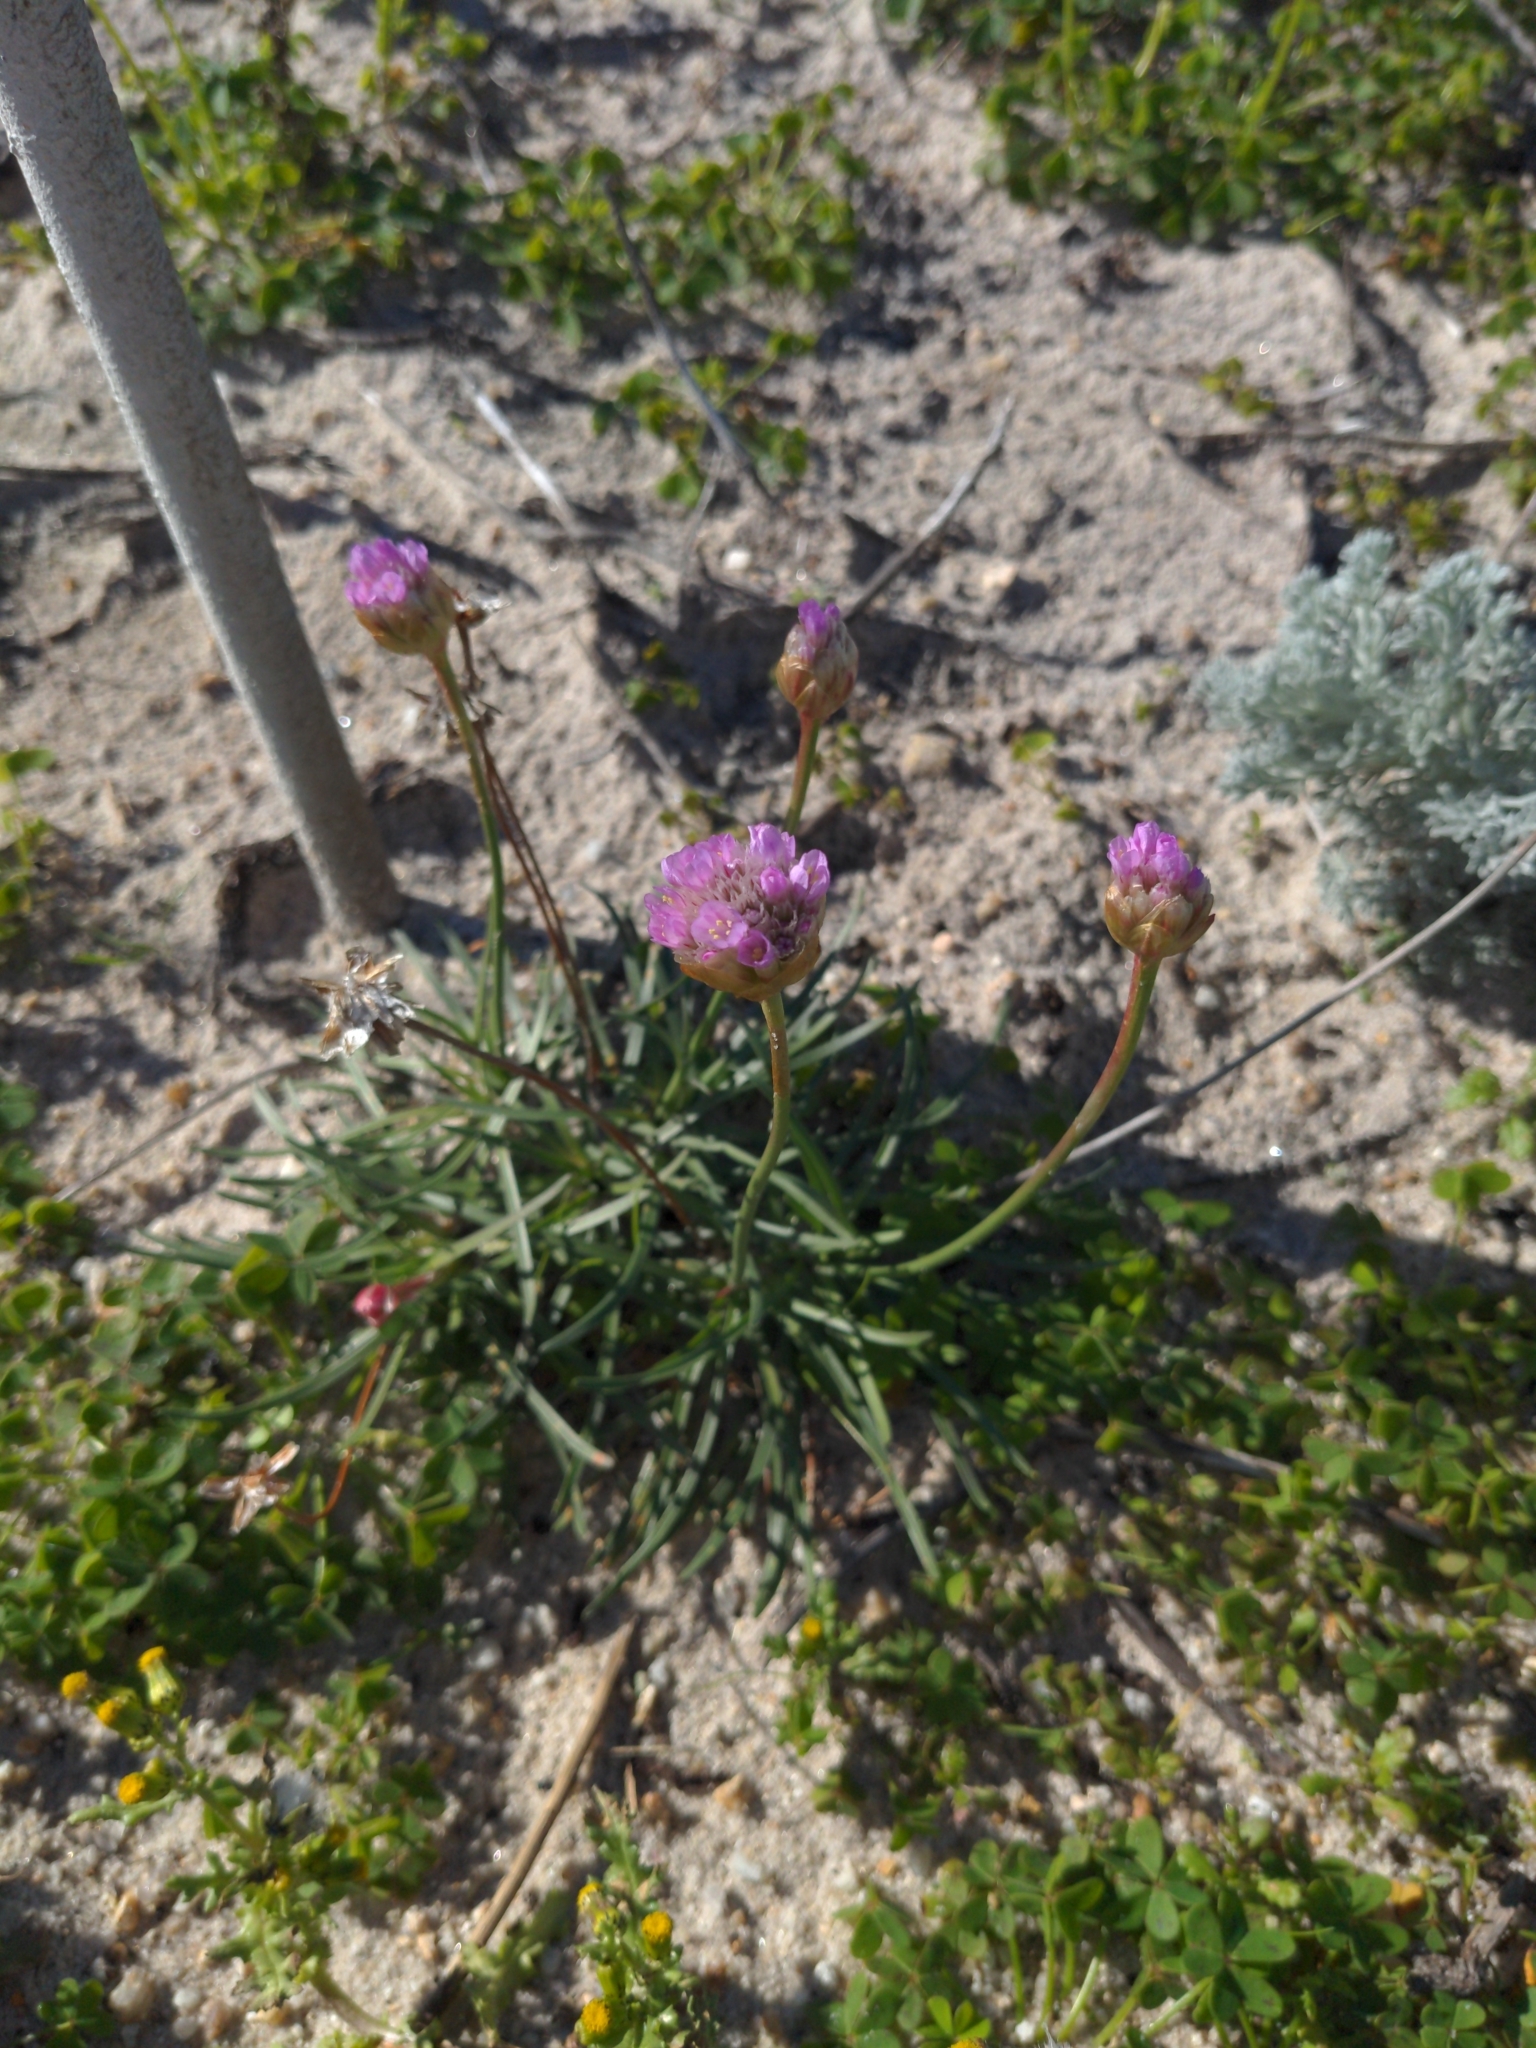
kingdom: Plantae
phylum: Tracheophyta
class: Magnoliopsida
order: Caryophyllales
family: Plumbaginaceae
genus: Armeria
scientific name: Armeria maritima
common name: Thrift
